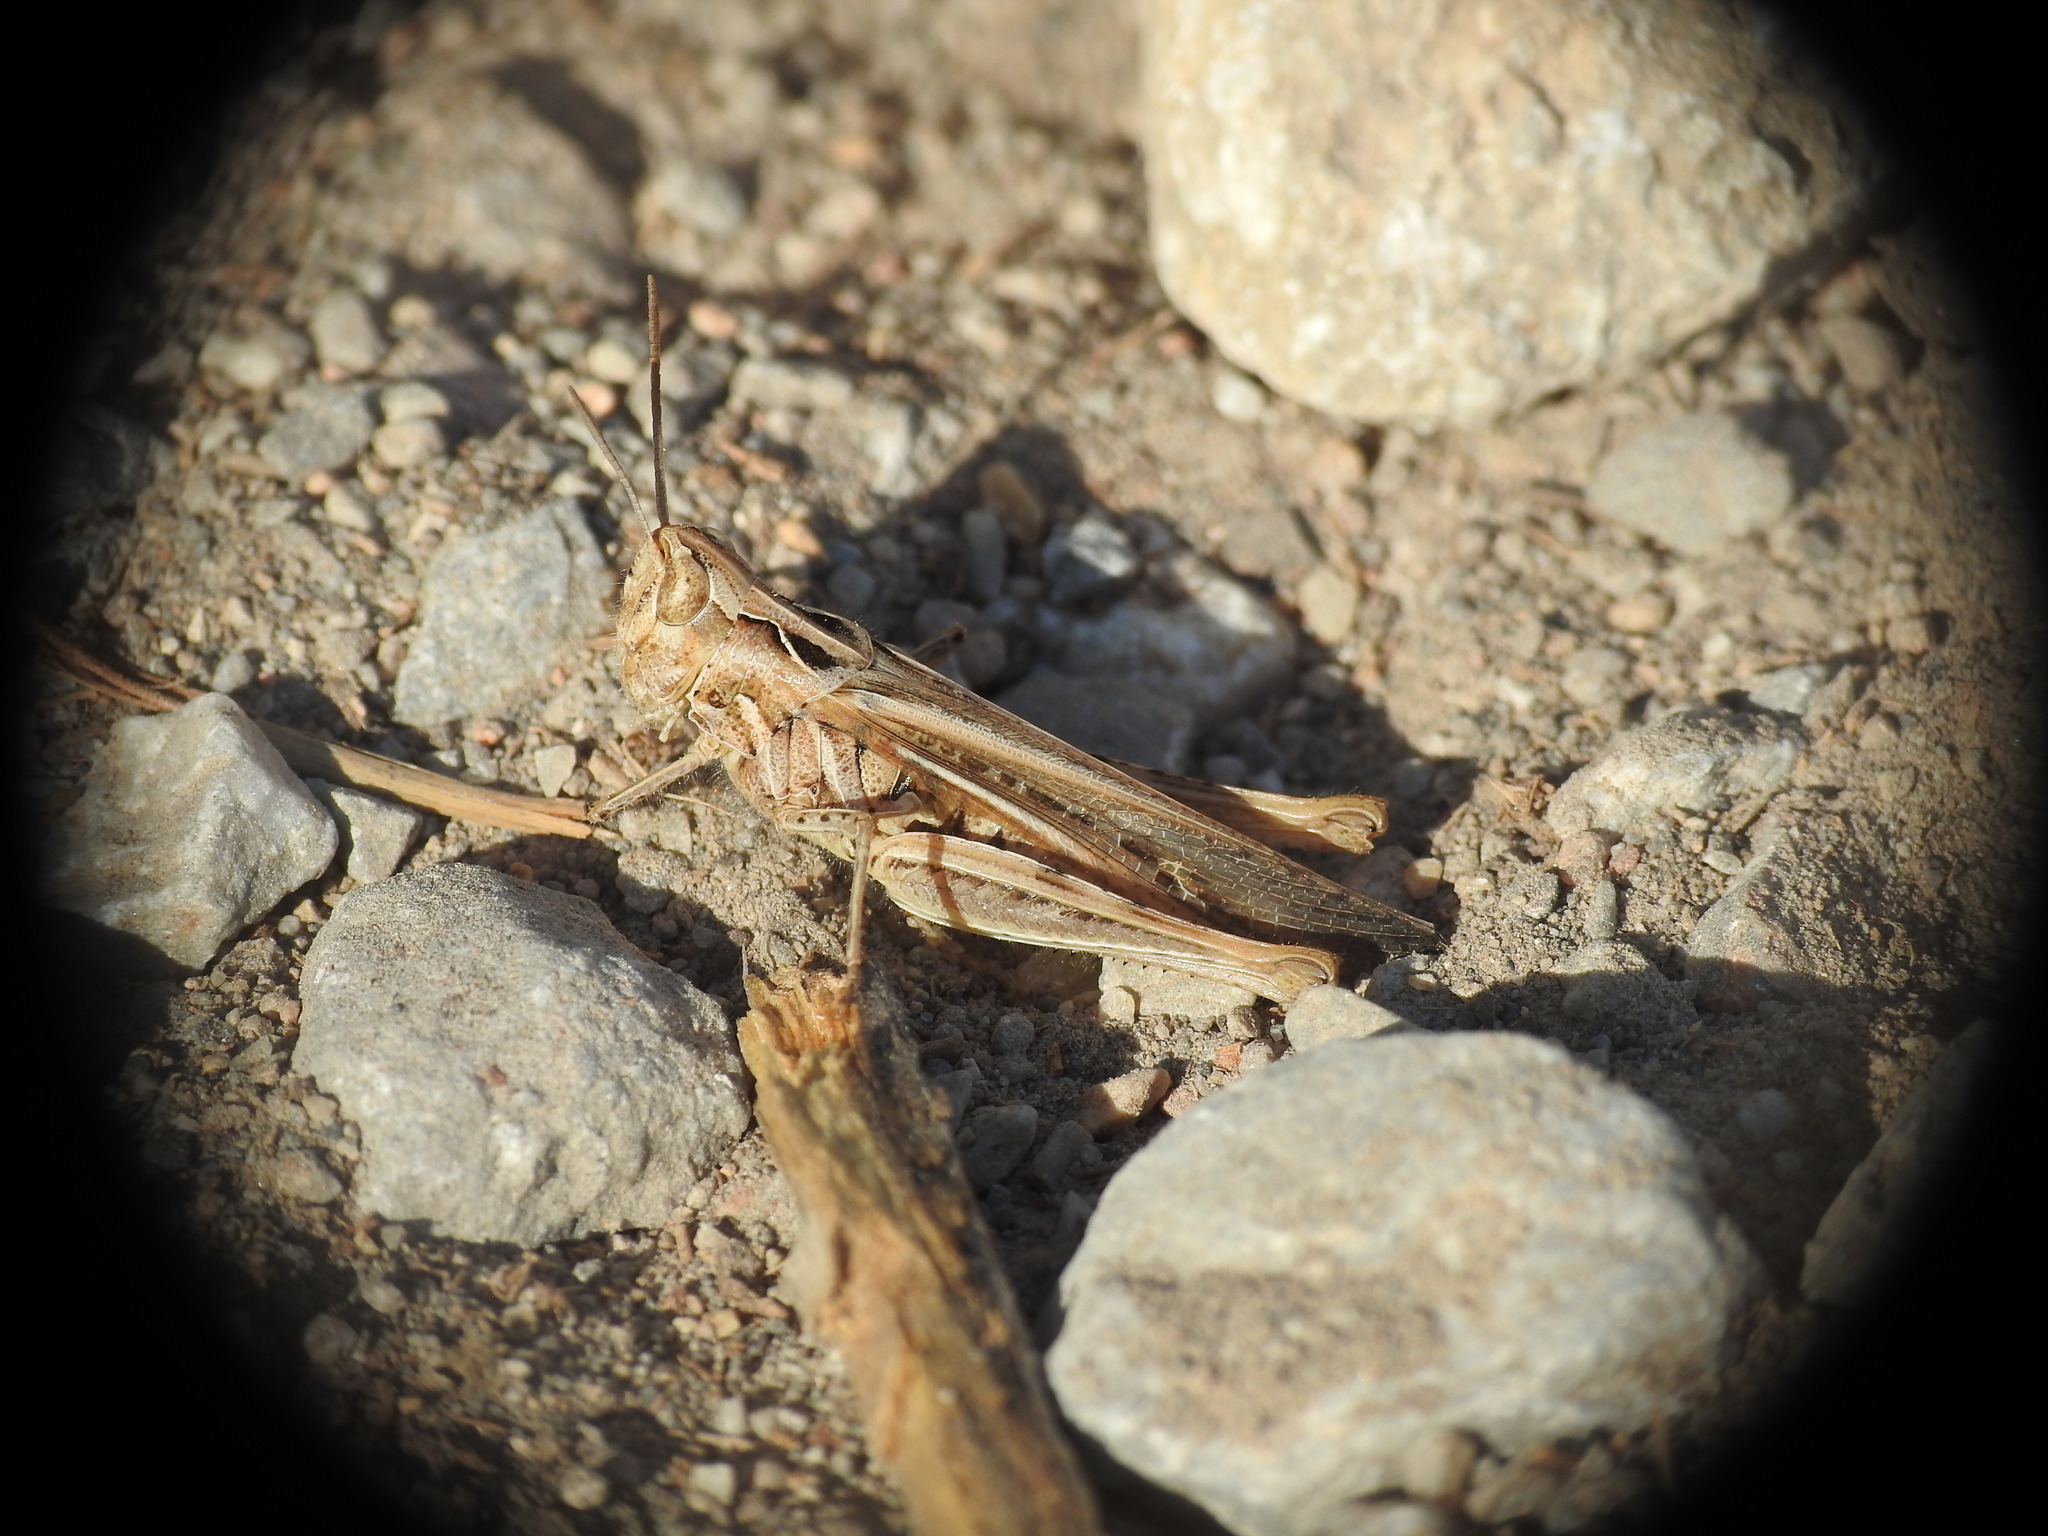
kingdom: Animalia
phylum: Arthropoda
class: Insecta
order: Orthoptera
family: Acrididae
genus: Chorthippus
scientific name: Chorthippus maritimus
